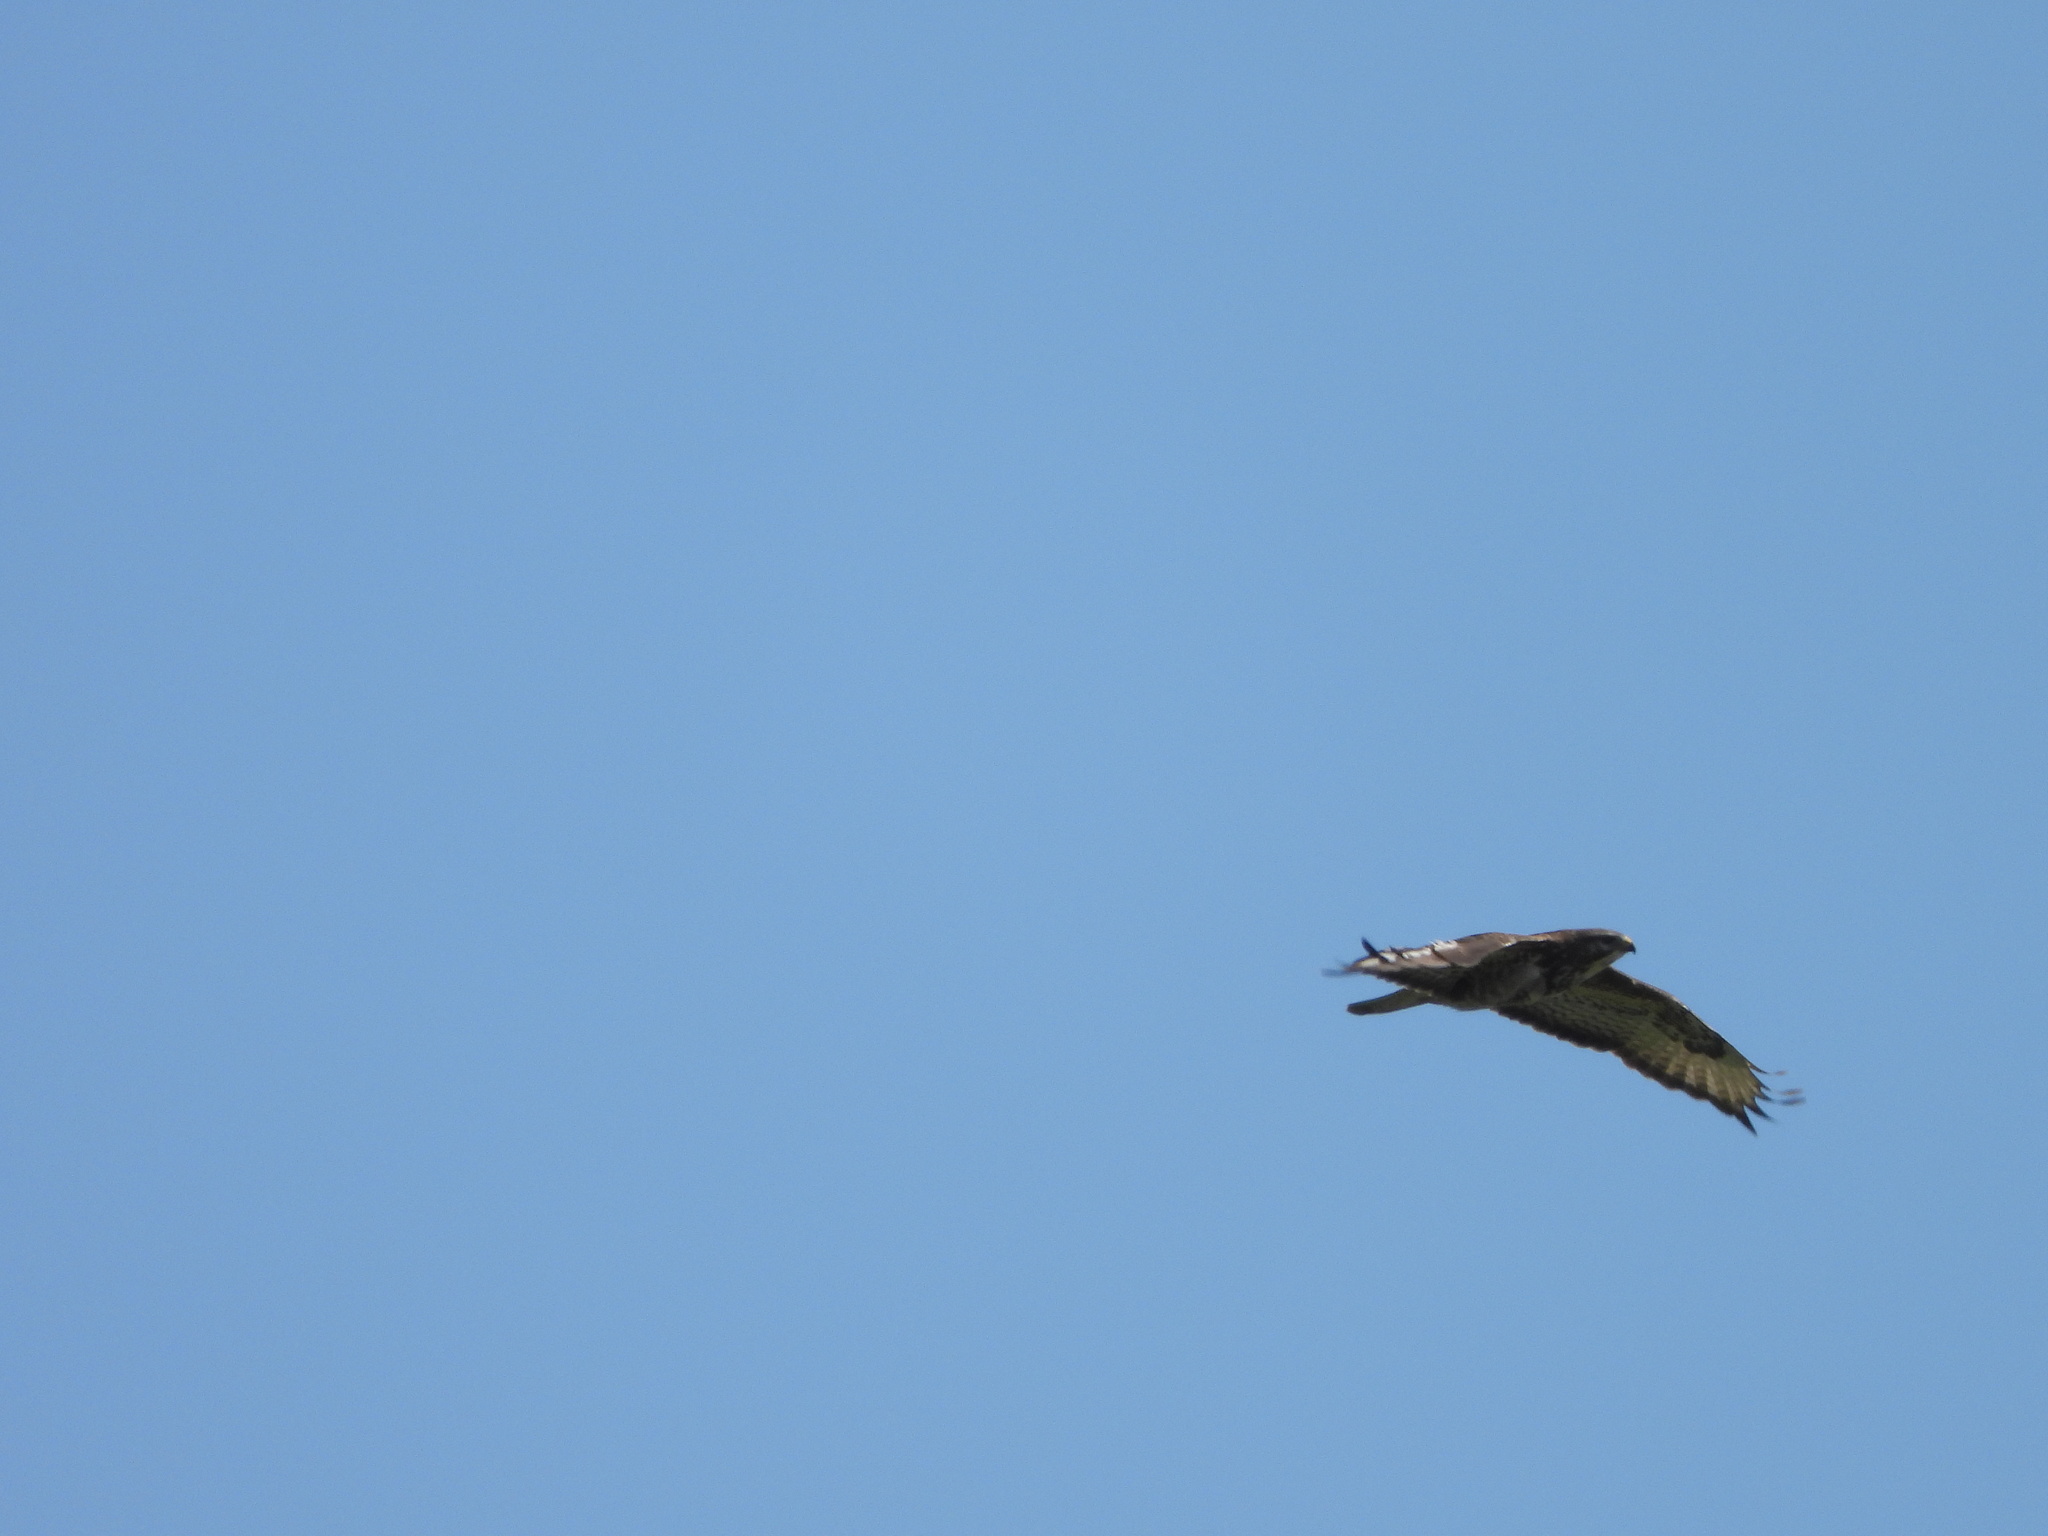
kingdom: Animalia
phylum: Chordata
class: Aves
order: Accipitriformes
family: Accipitridae
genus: Buteo
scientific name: Buteo buteo
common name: Common buzzard
